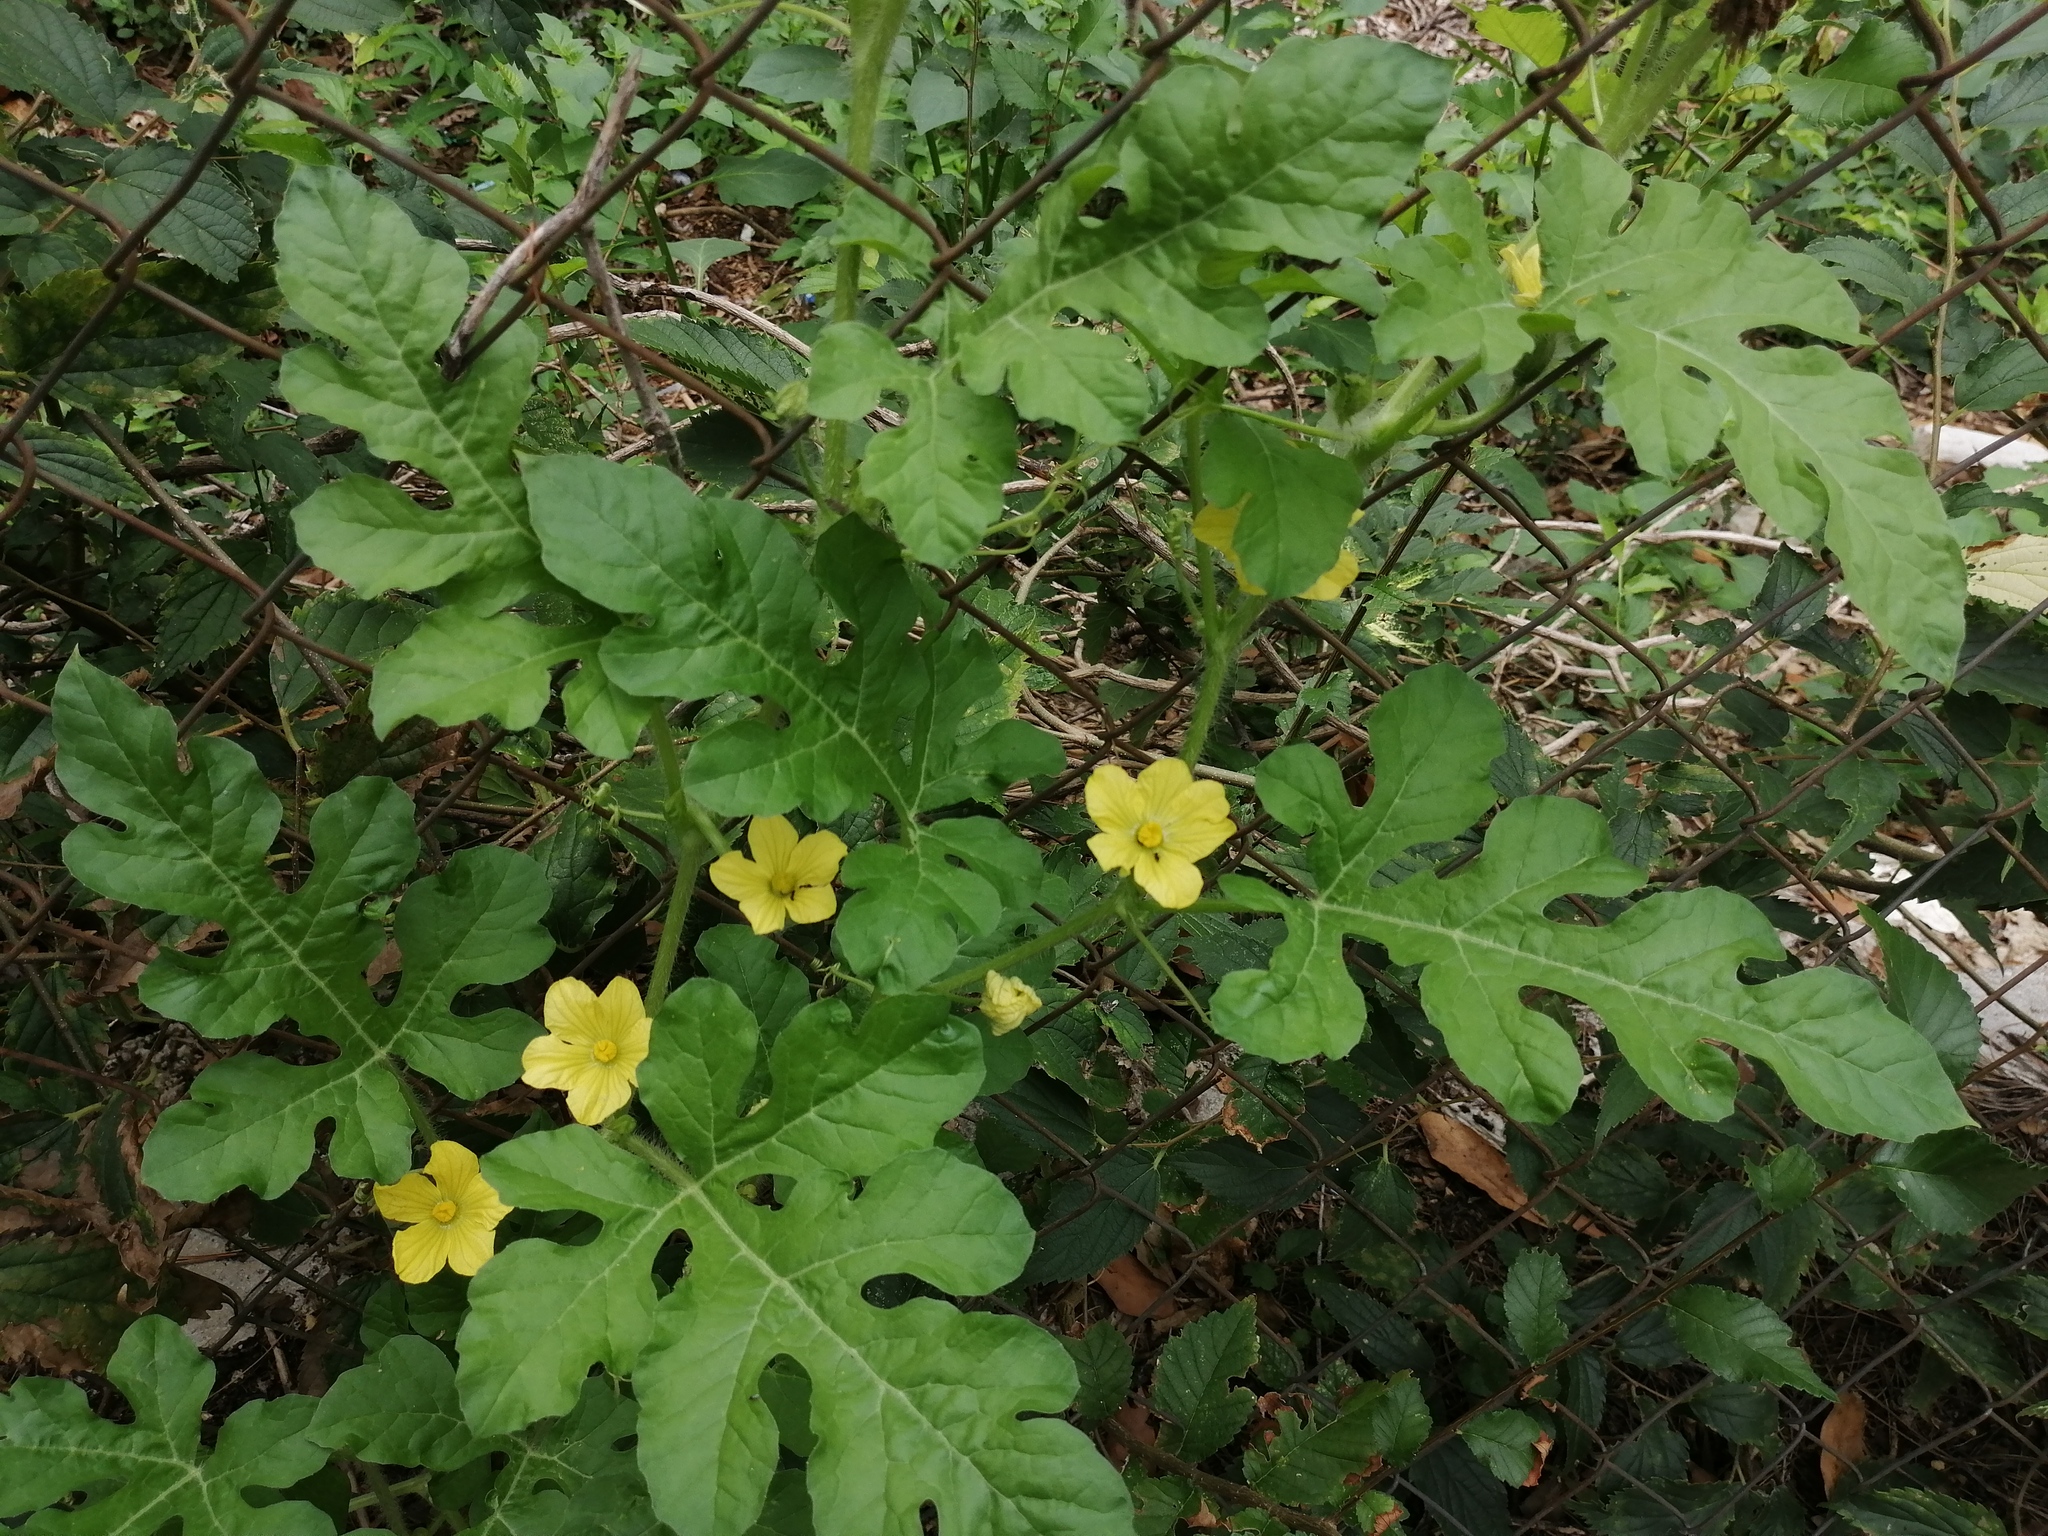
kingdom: Plantae
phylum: Tracheophyta
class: Magnoliopsida
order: Cucurbitales
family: Cucurbitaceae
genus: Citrullus
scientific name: Citrullus lanatus
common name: Watermelon
